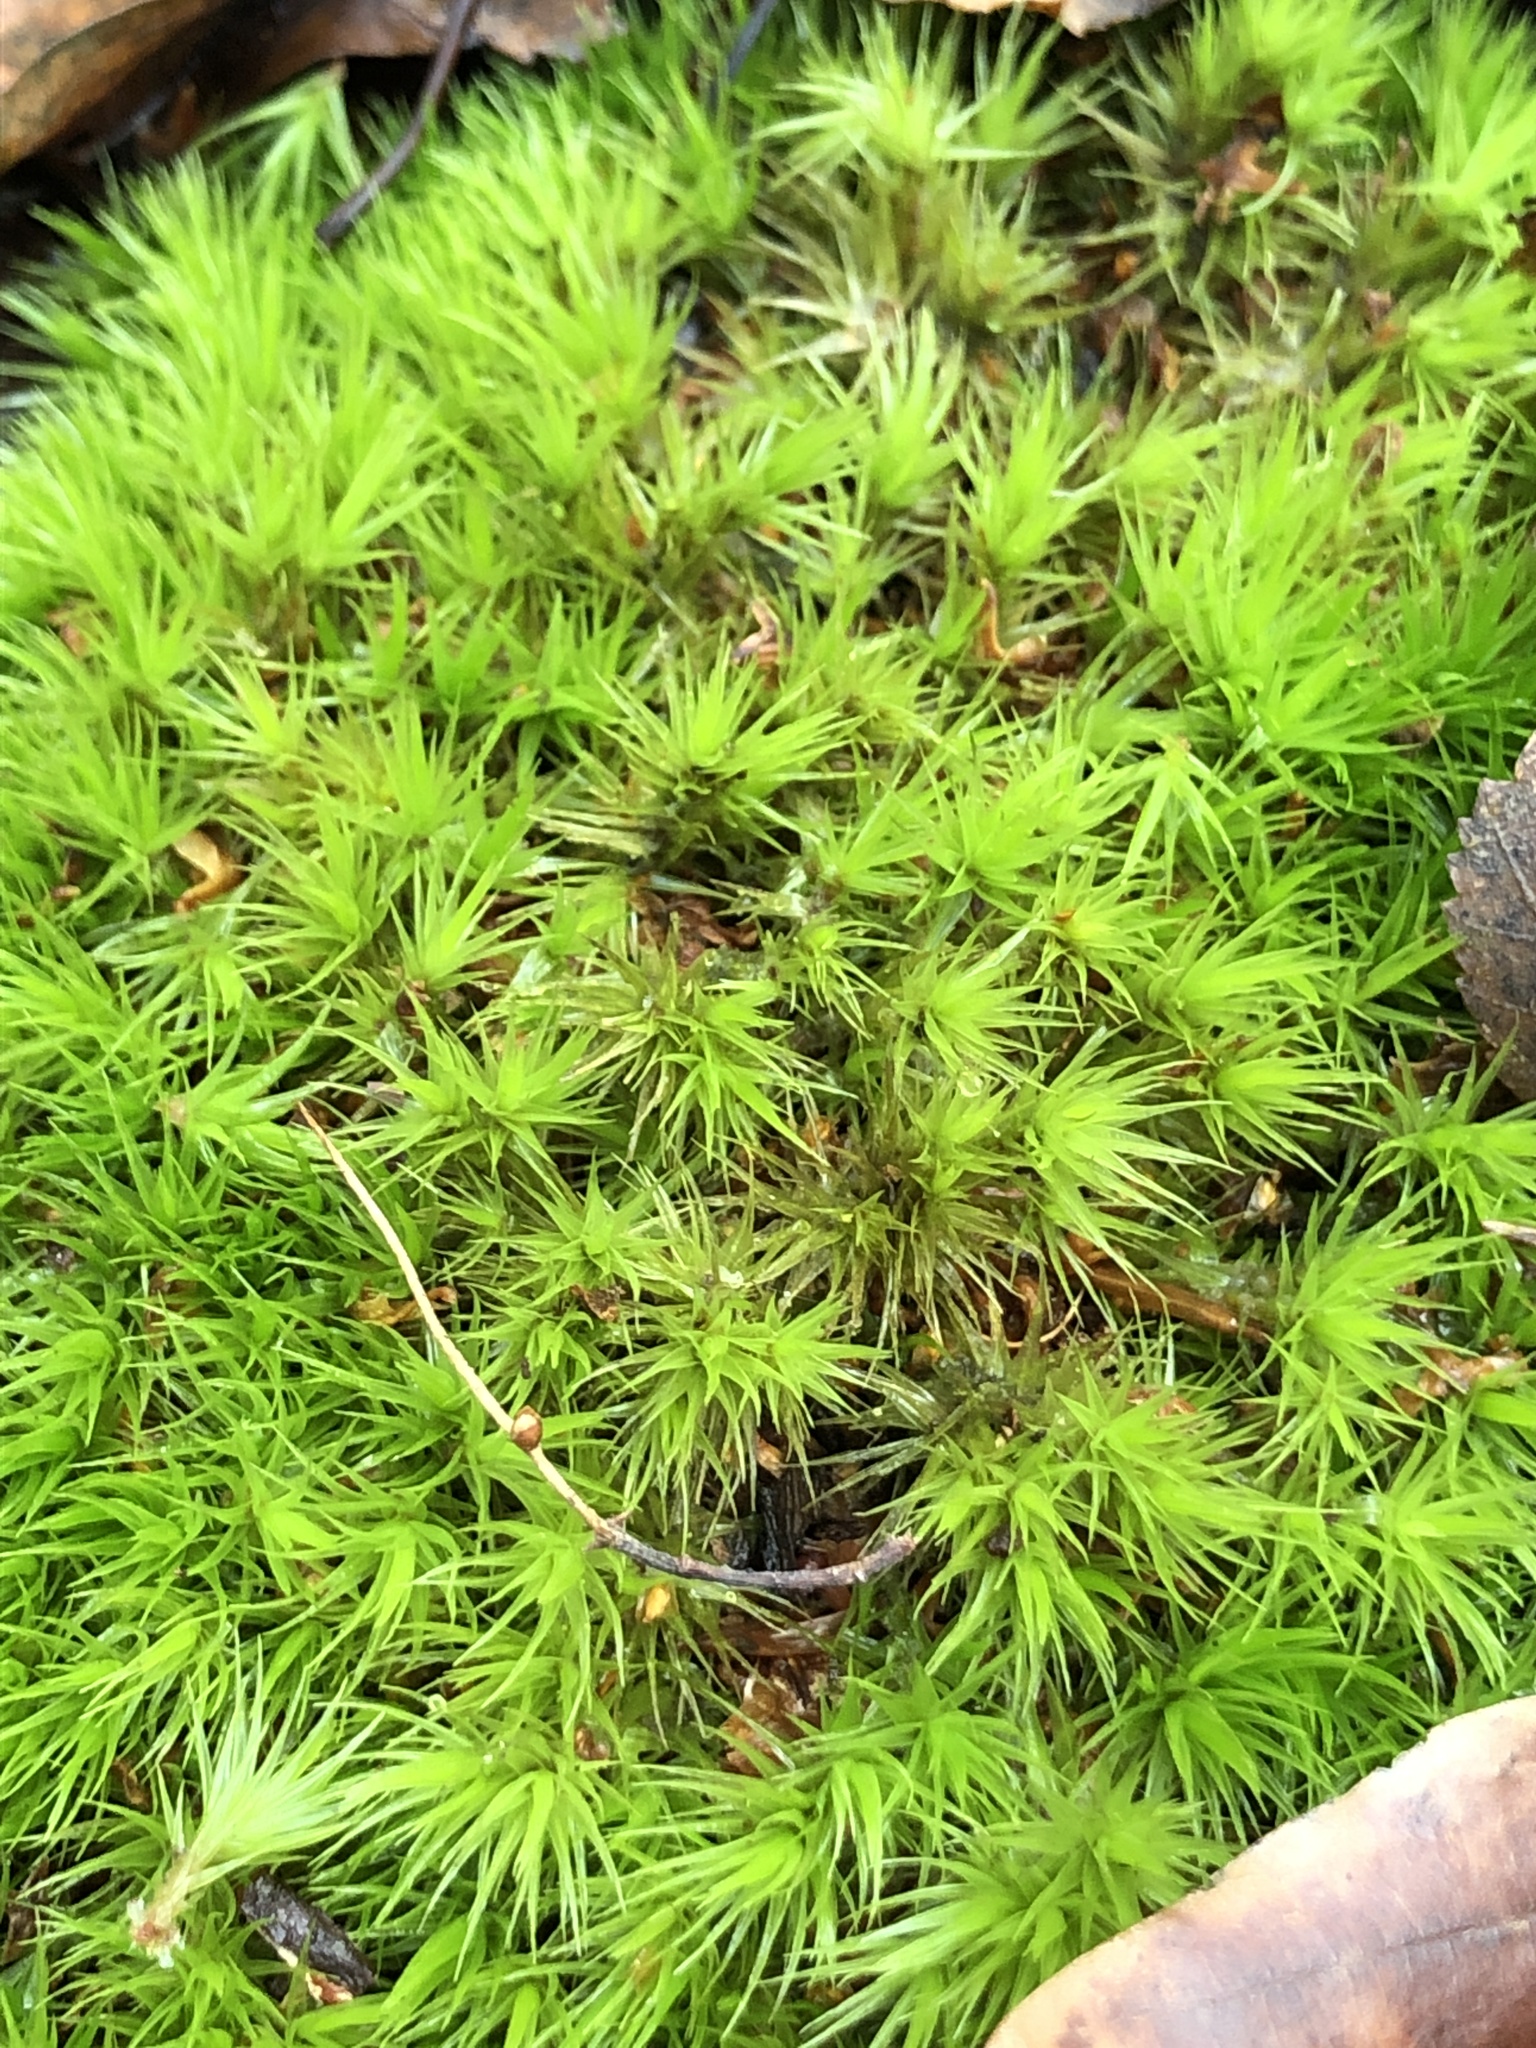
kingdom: Plantae
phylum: Bryophyta
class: Bryopsida
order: Dicranales
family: Dicranaceae
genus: Dicranum
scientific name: Dicranum scoparium
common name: Broom fork-moss
